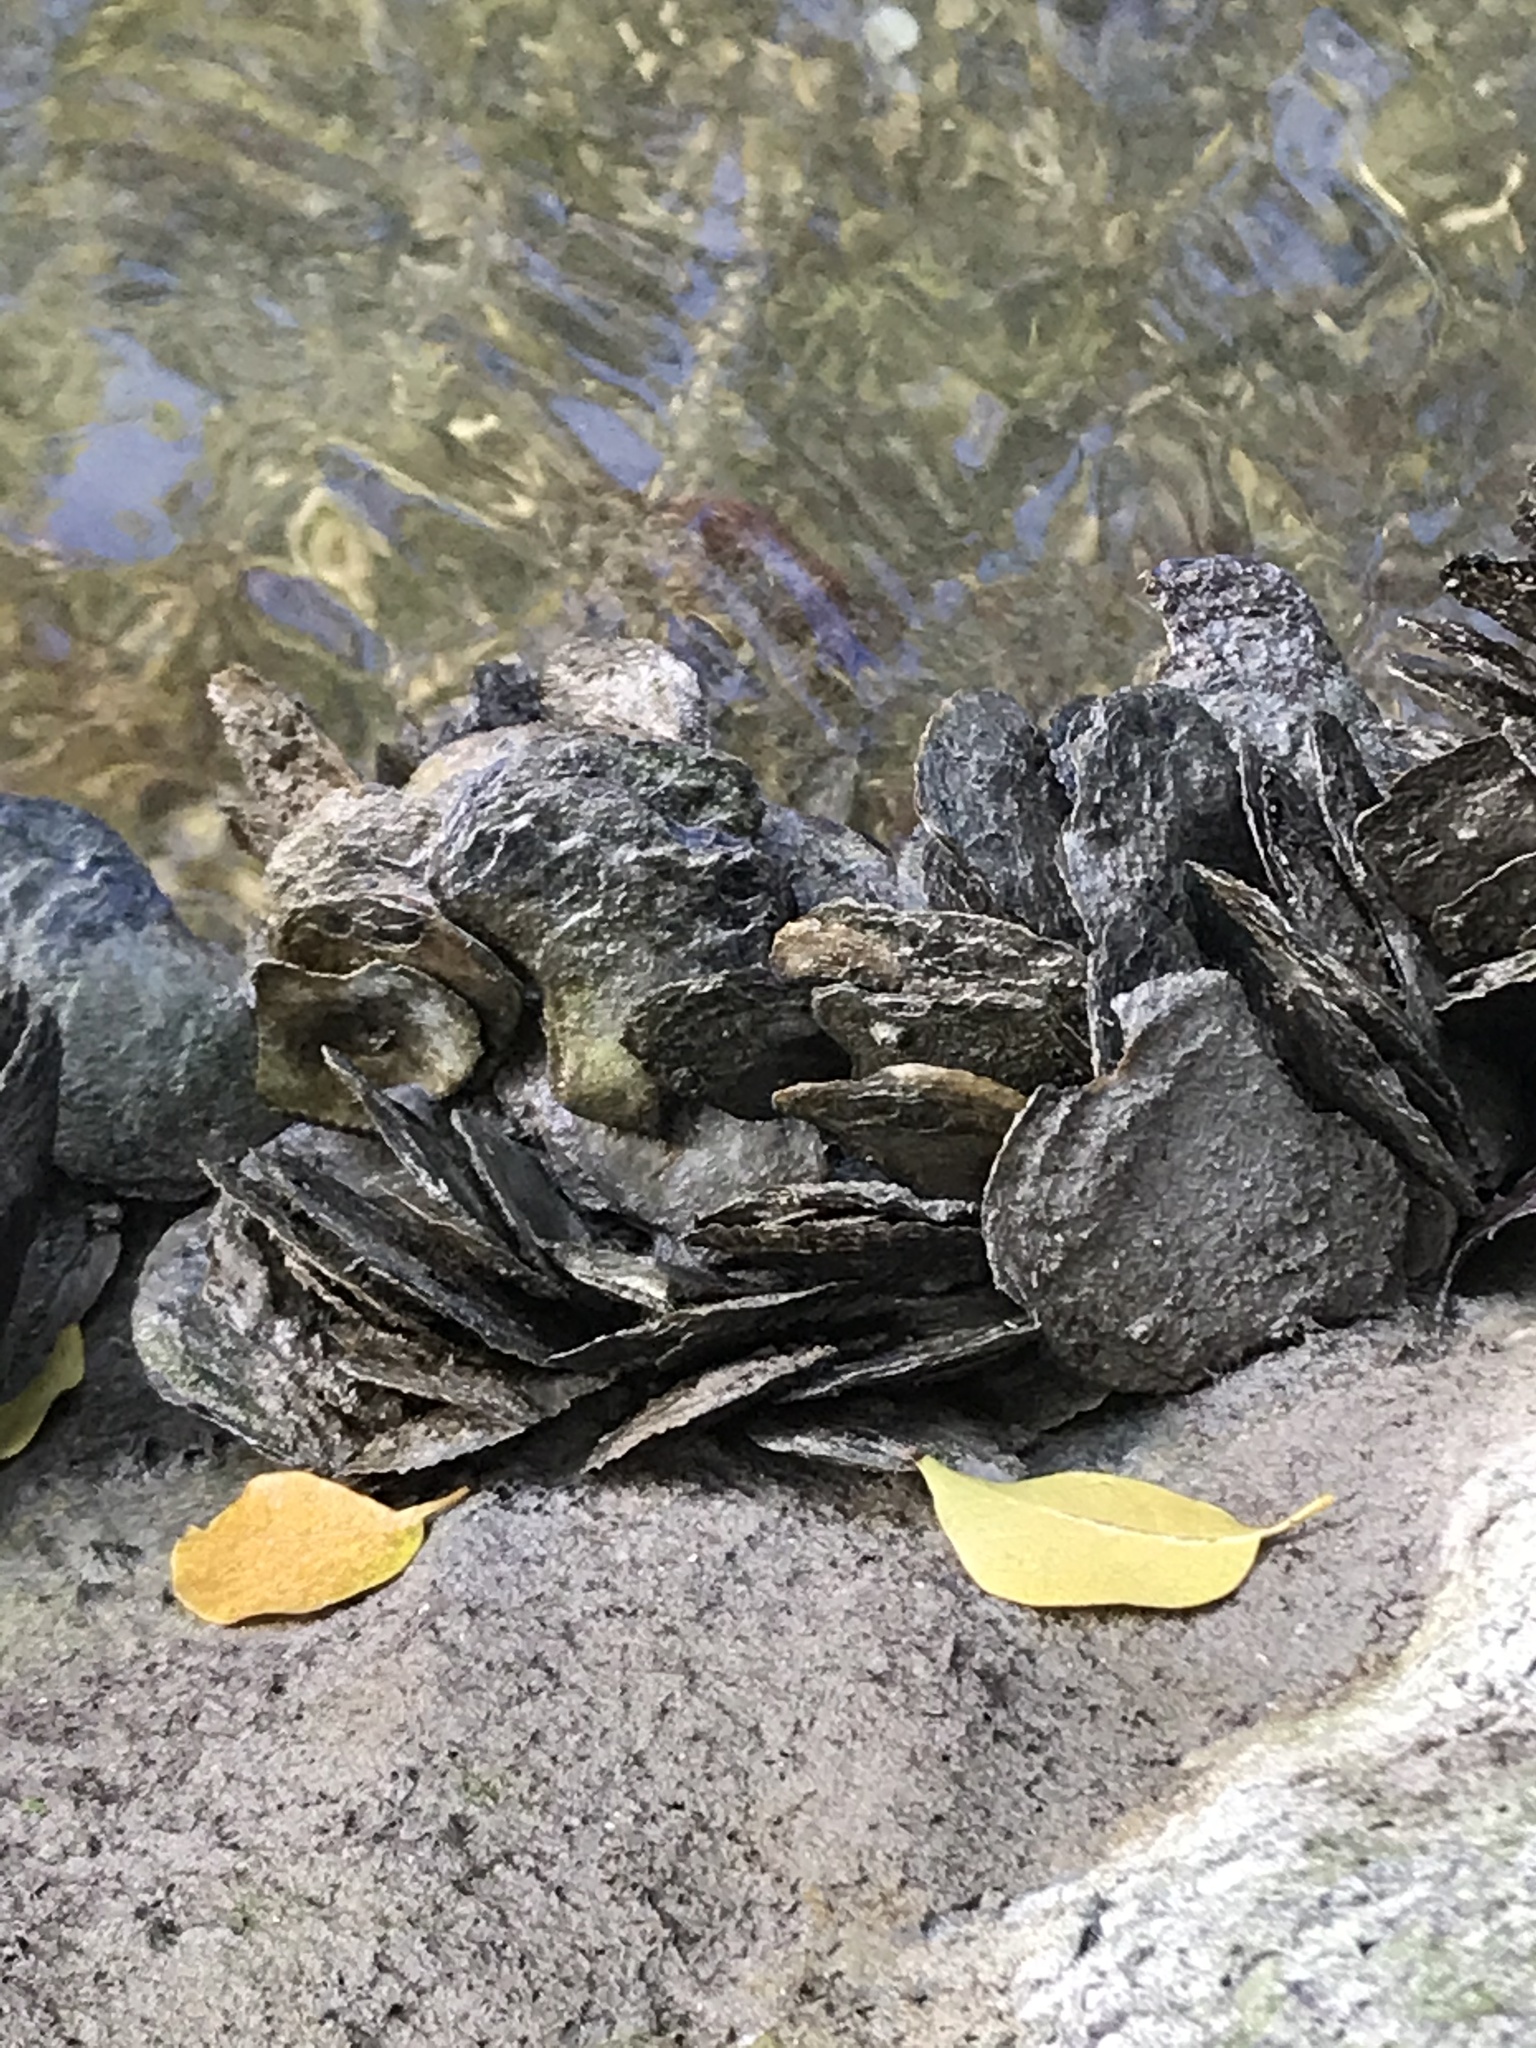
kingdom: Animalia
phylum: Mollusca
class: Bivalvia
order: Ostreida
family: Isognomonidae
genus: Isognomon
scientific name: Isognomon alatus
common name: Flat tree-oyster
